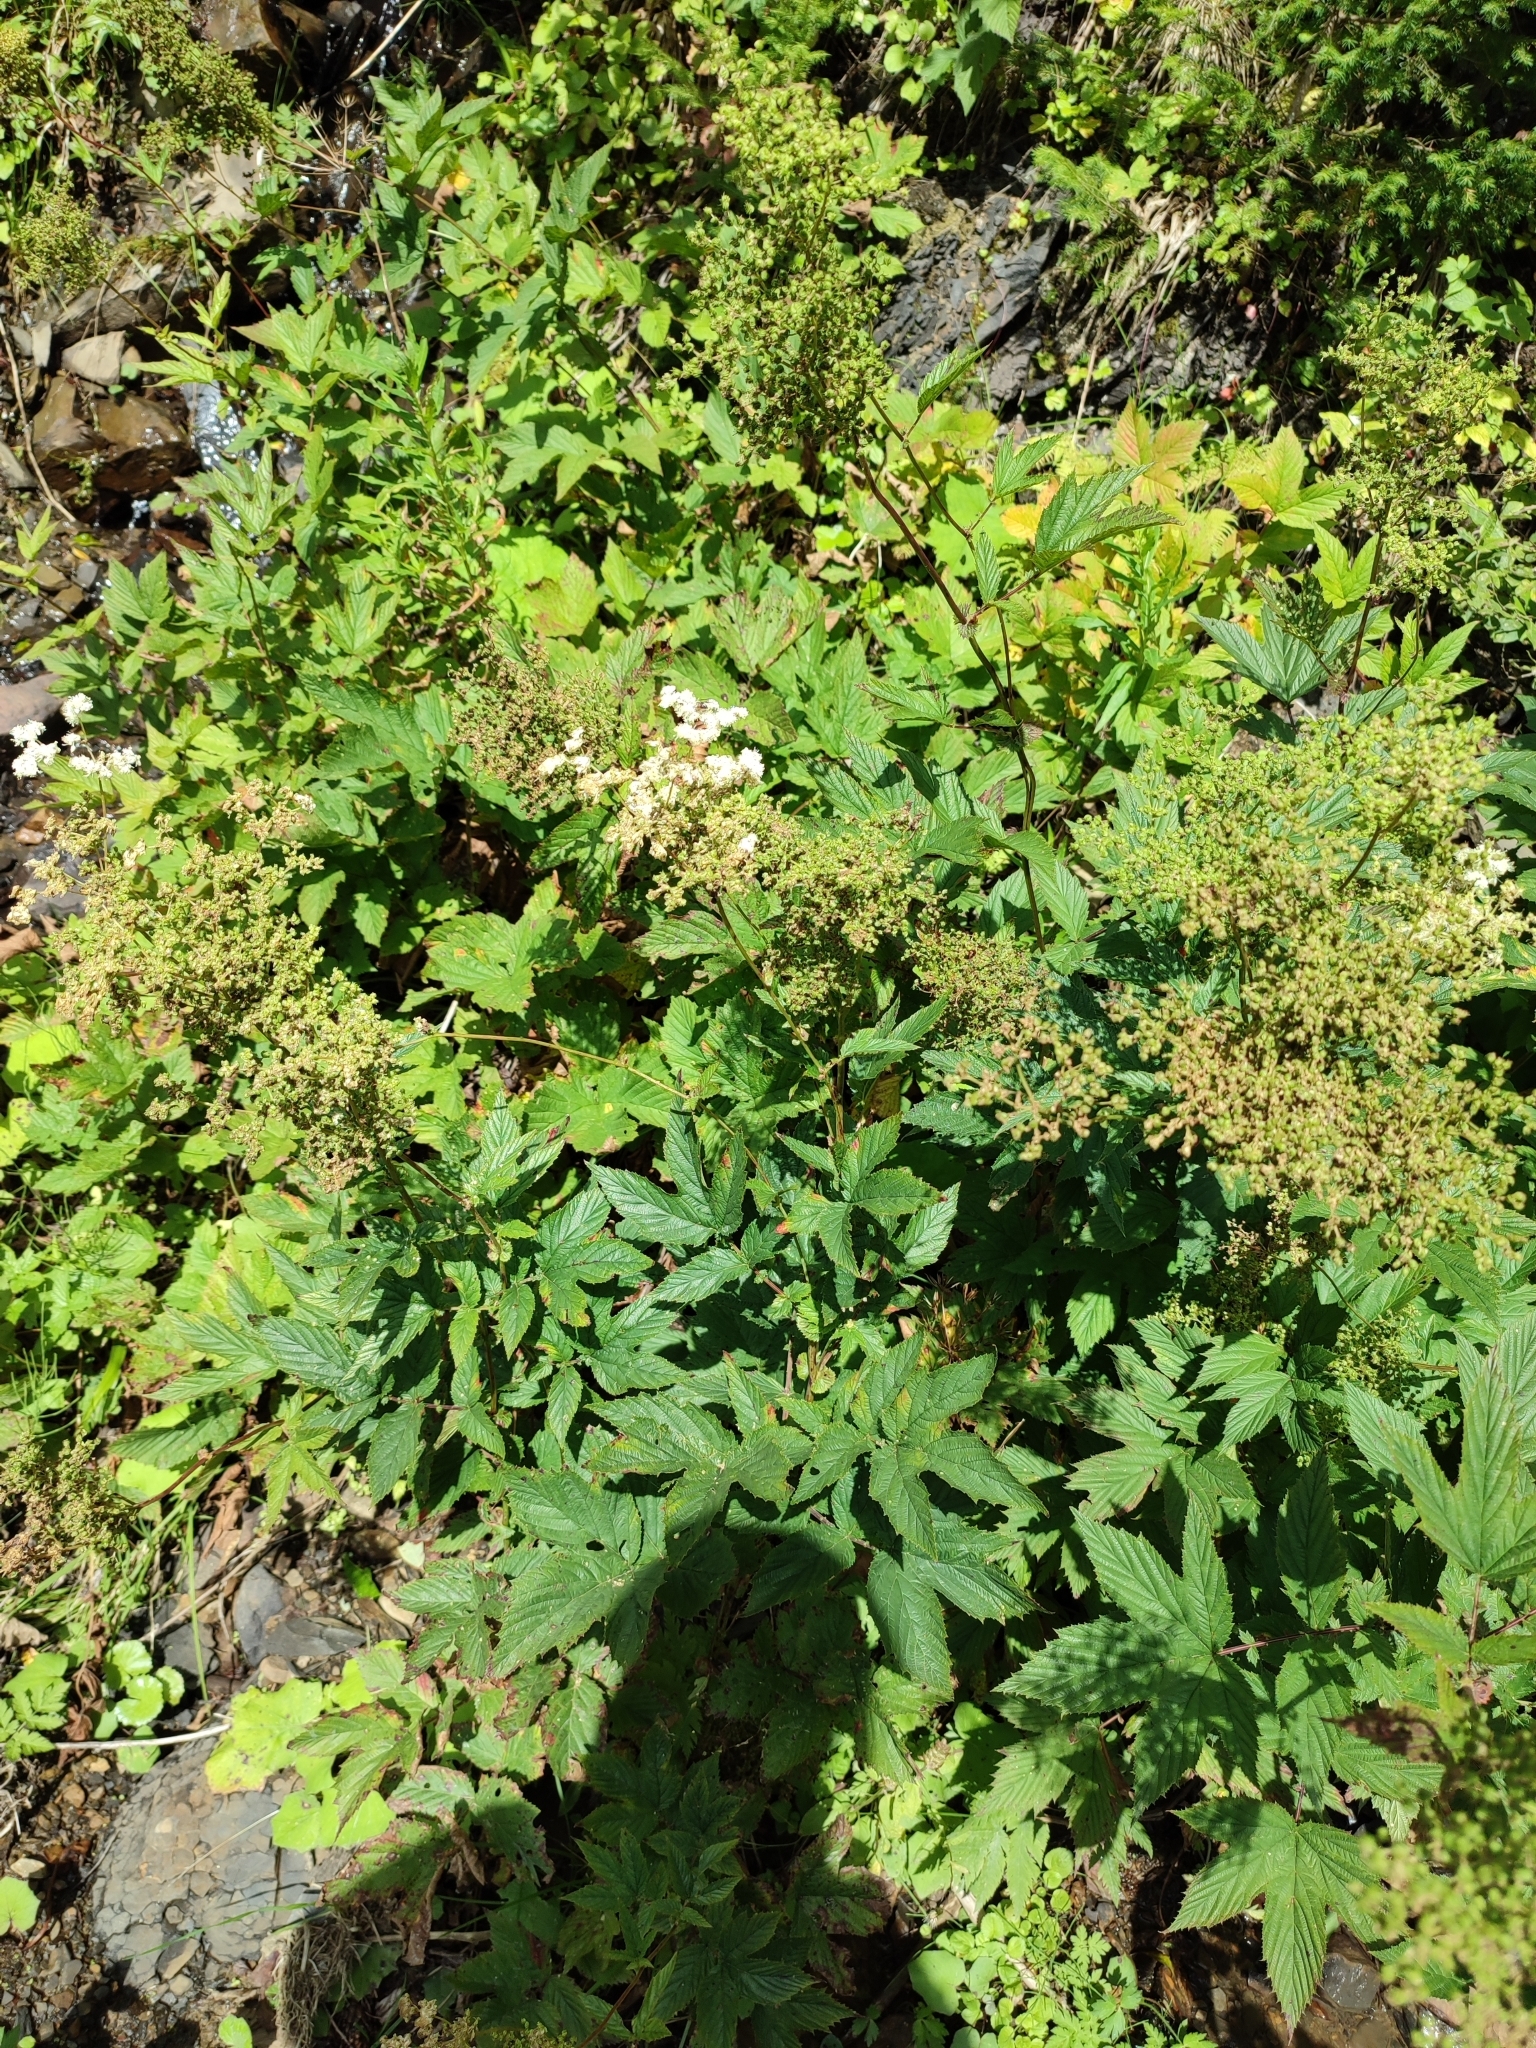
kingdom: Plantae
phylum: Tracheophyta
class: Magnoliopsida
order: Rosales
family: Rosaceae
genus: Filipendula
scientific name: Filipendula ulmaria
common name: Meadowsweet
